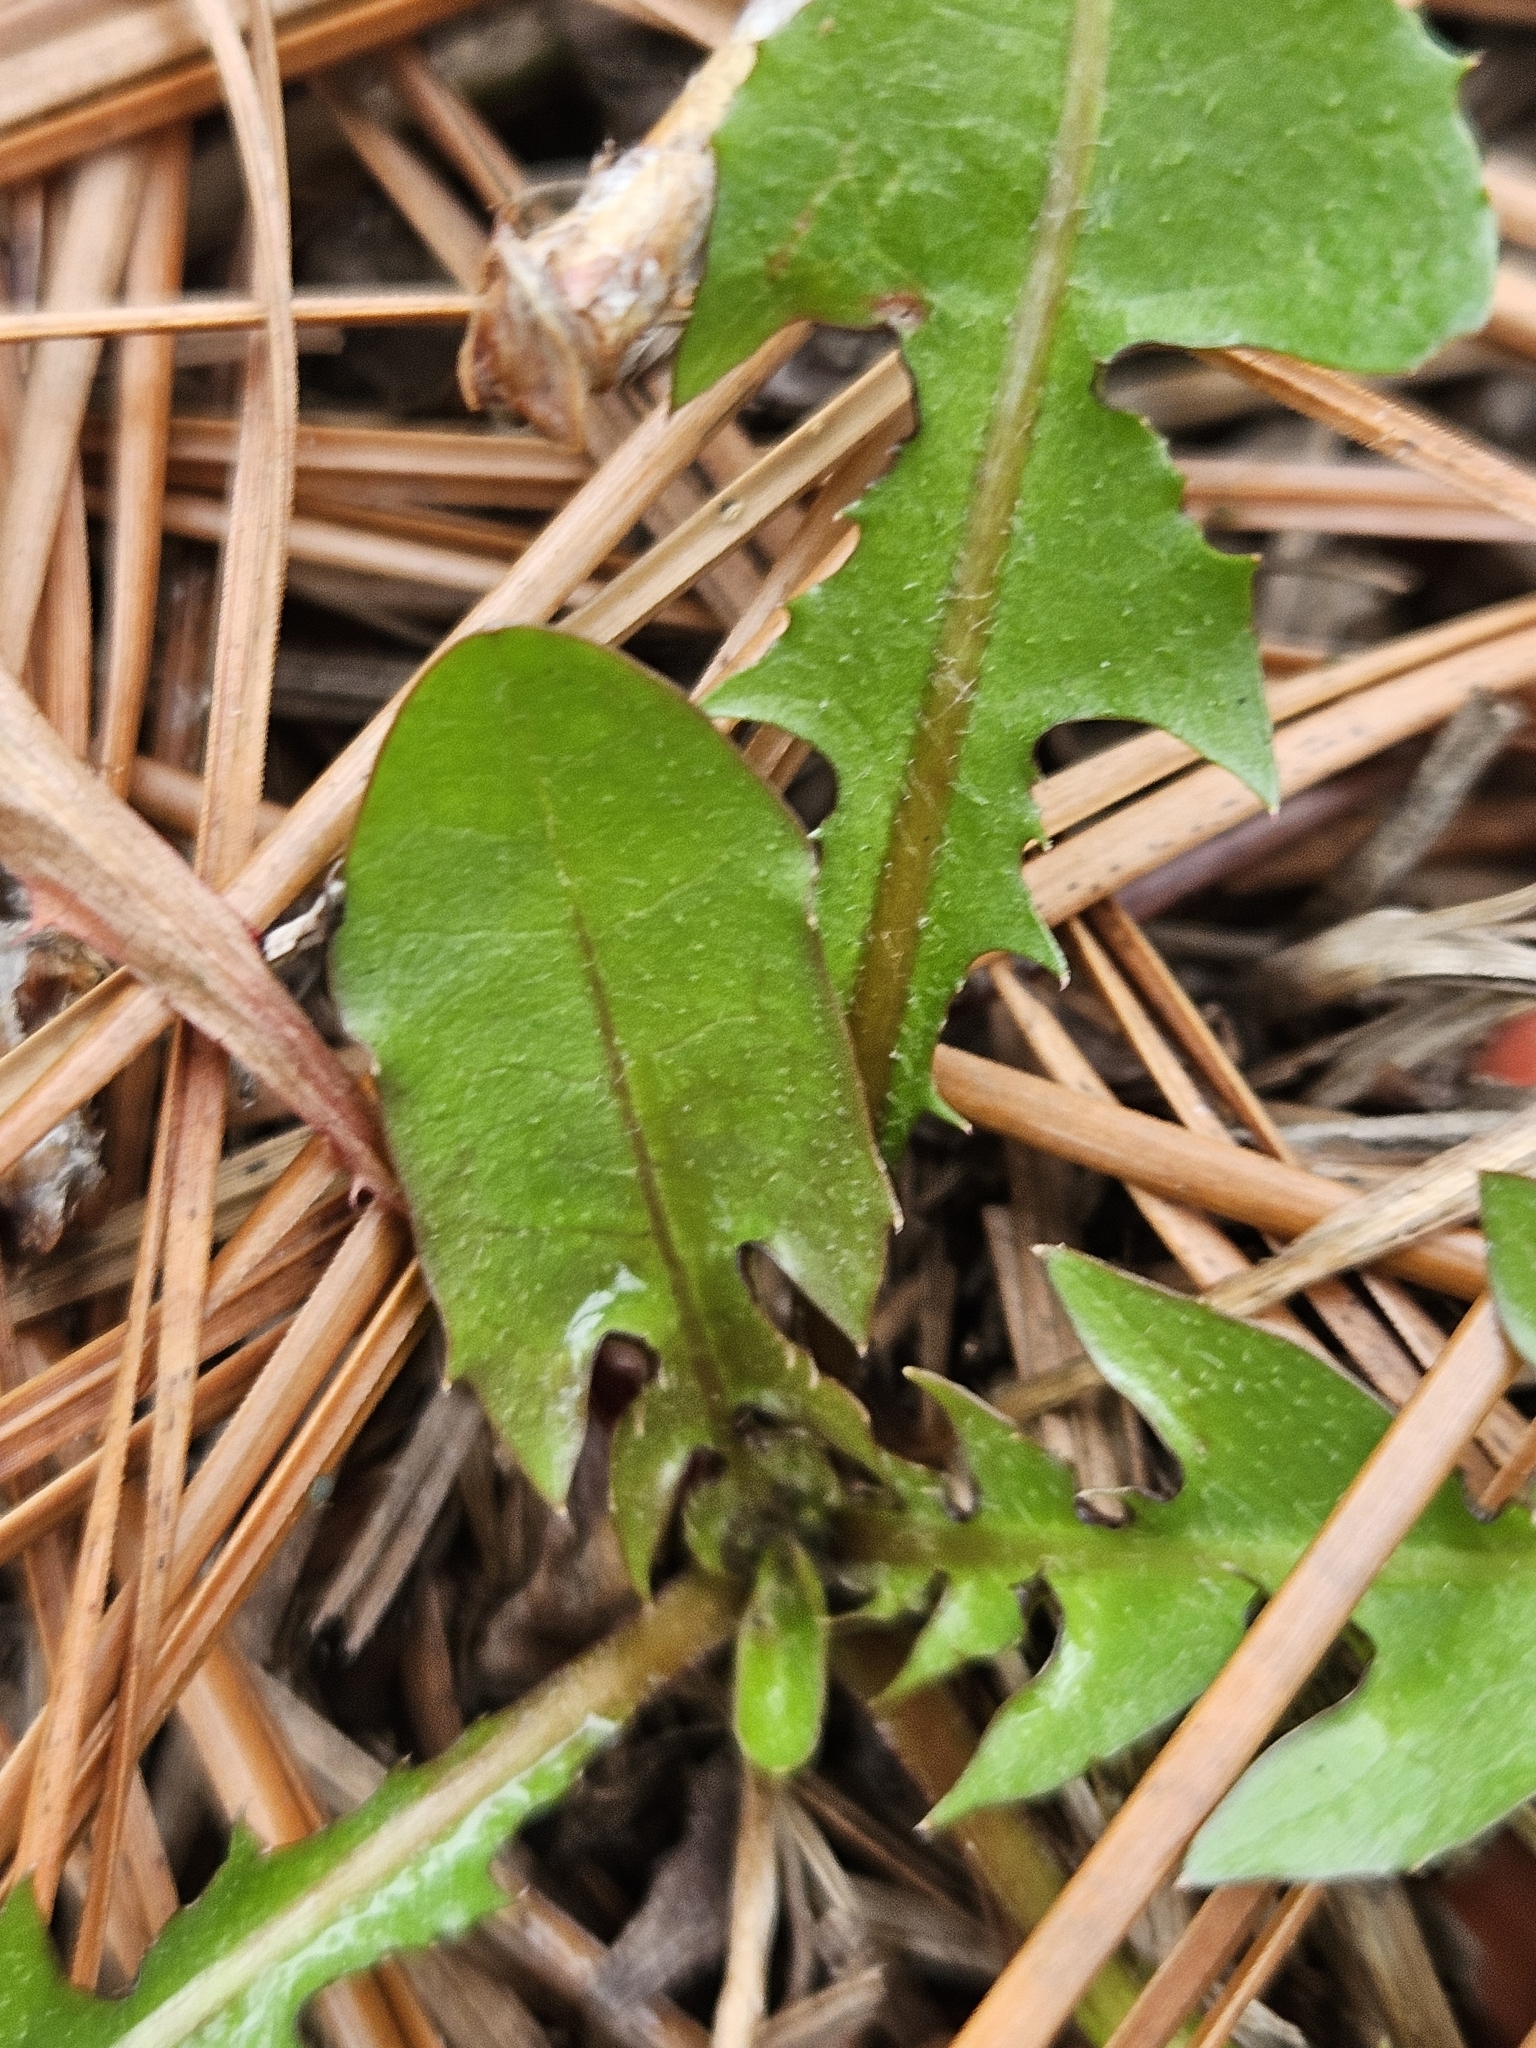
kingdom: Plantae
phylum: Tracheophyta
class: Magnoliopsida
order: Asterales
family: Asteraceae
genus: Taraxacum
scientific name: Taraxacum officinale
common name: Common dandelion
